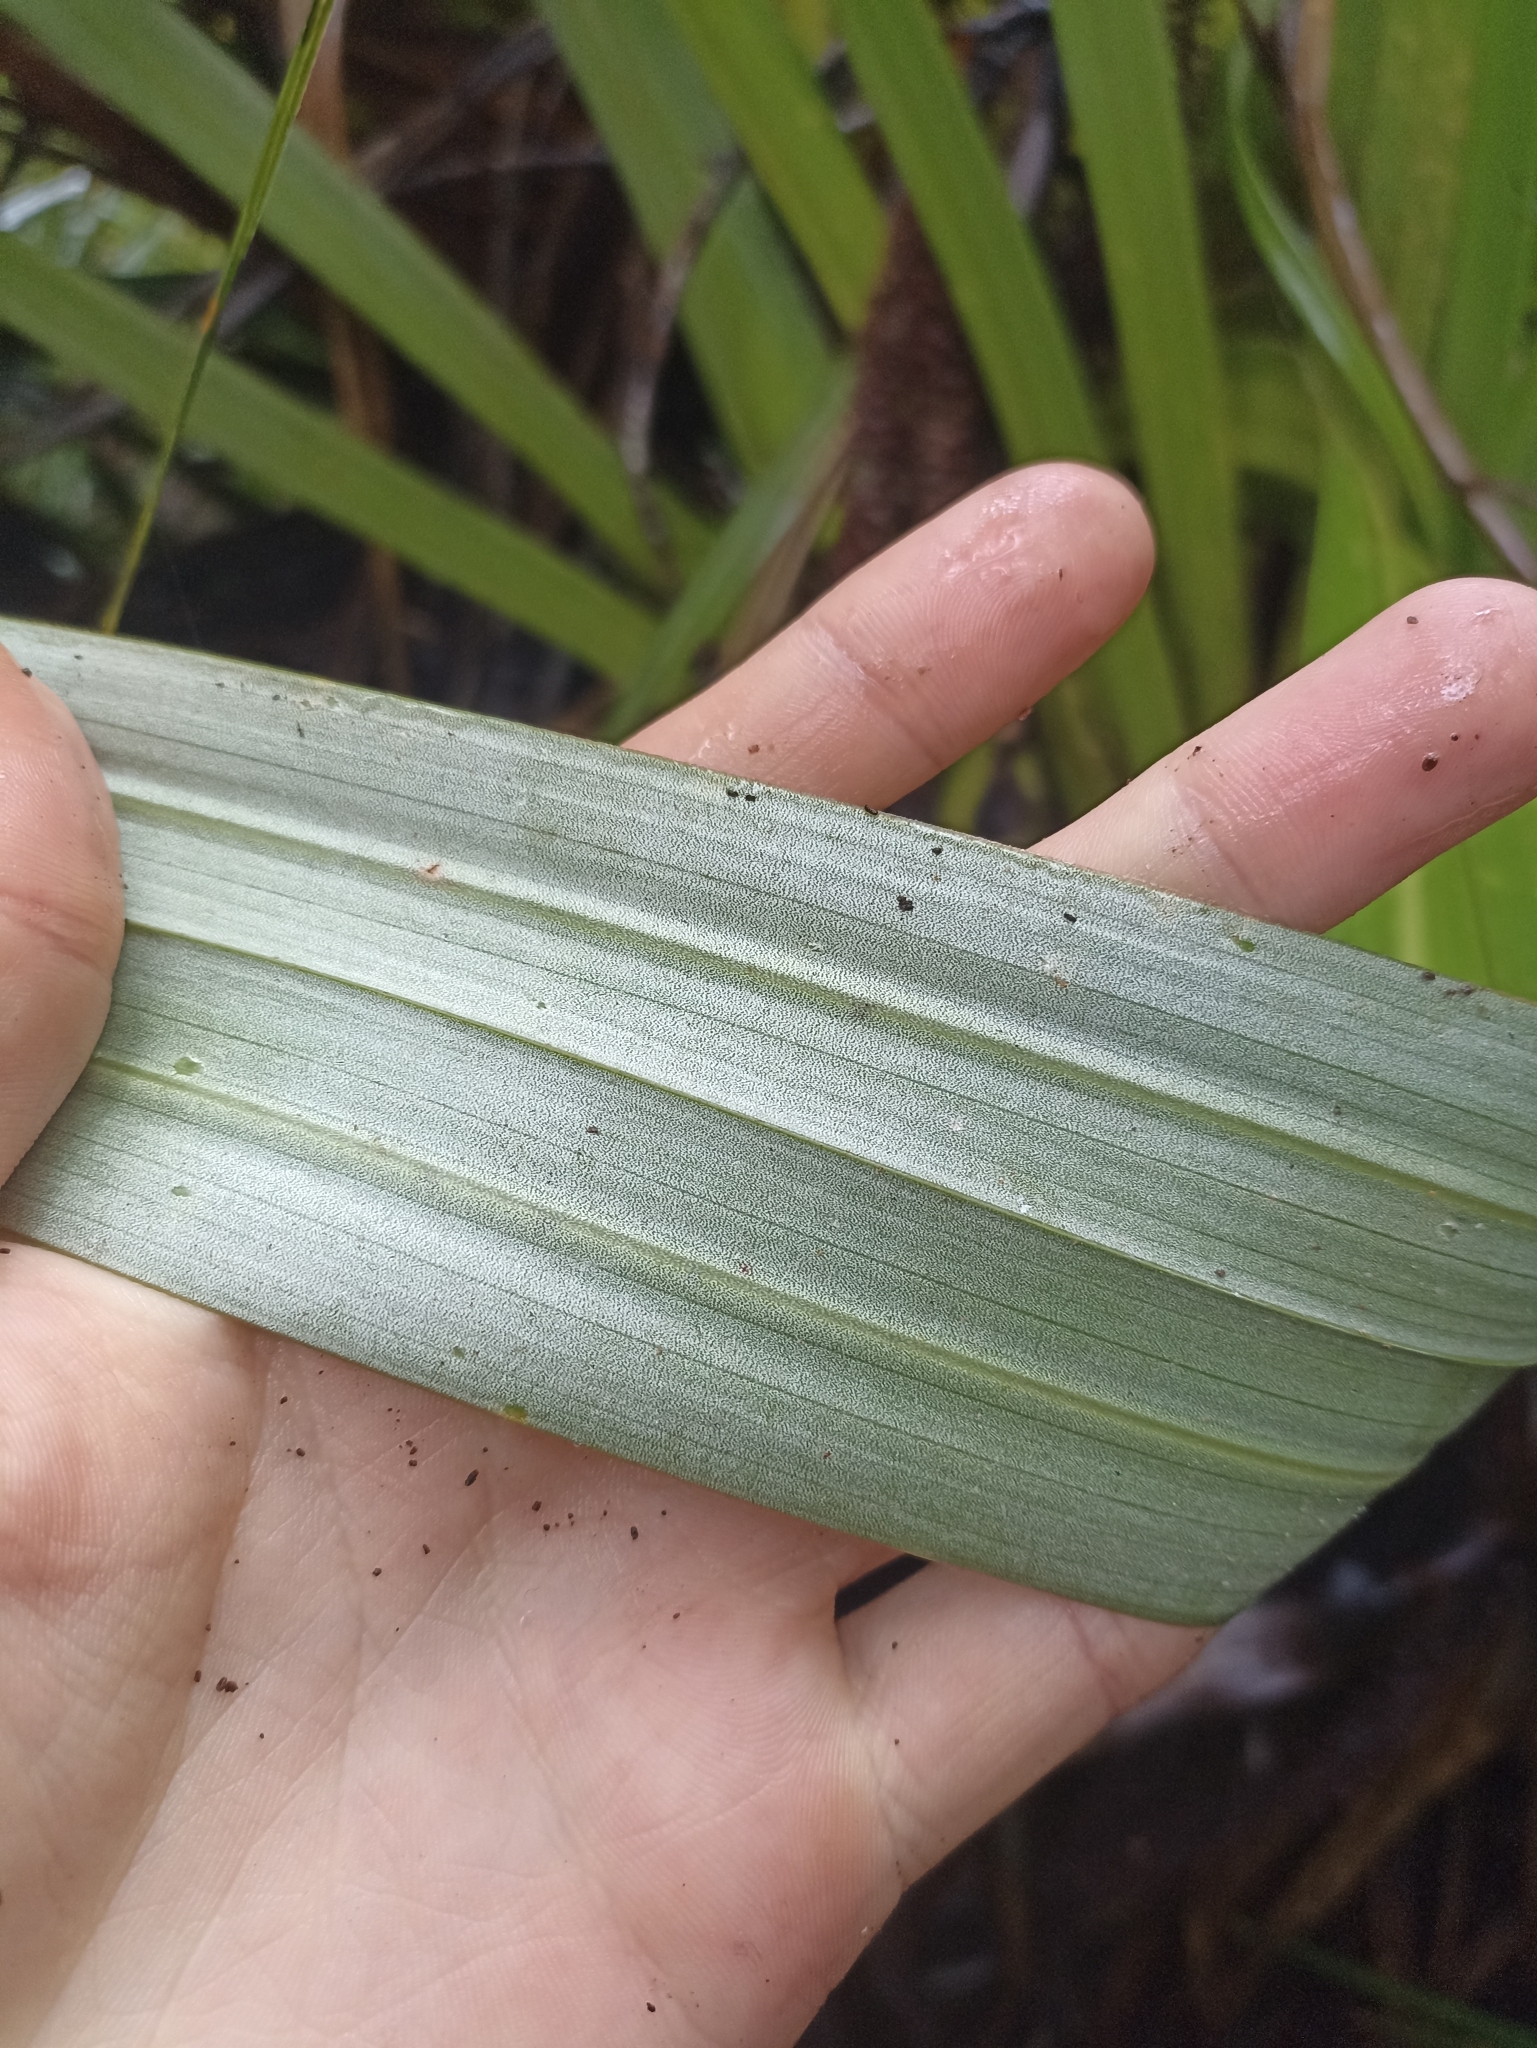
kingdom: Plantae
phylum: Tracheophyta
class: Liliopsida
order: Asparagales
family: Asteliaceae
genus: Astelia
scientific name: Astelia hastata
